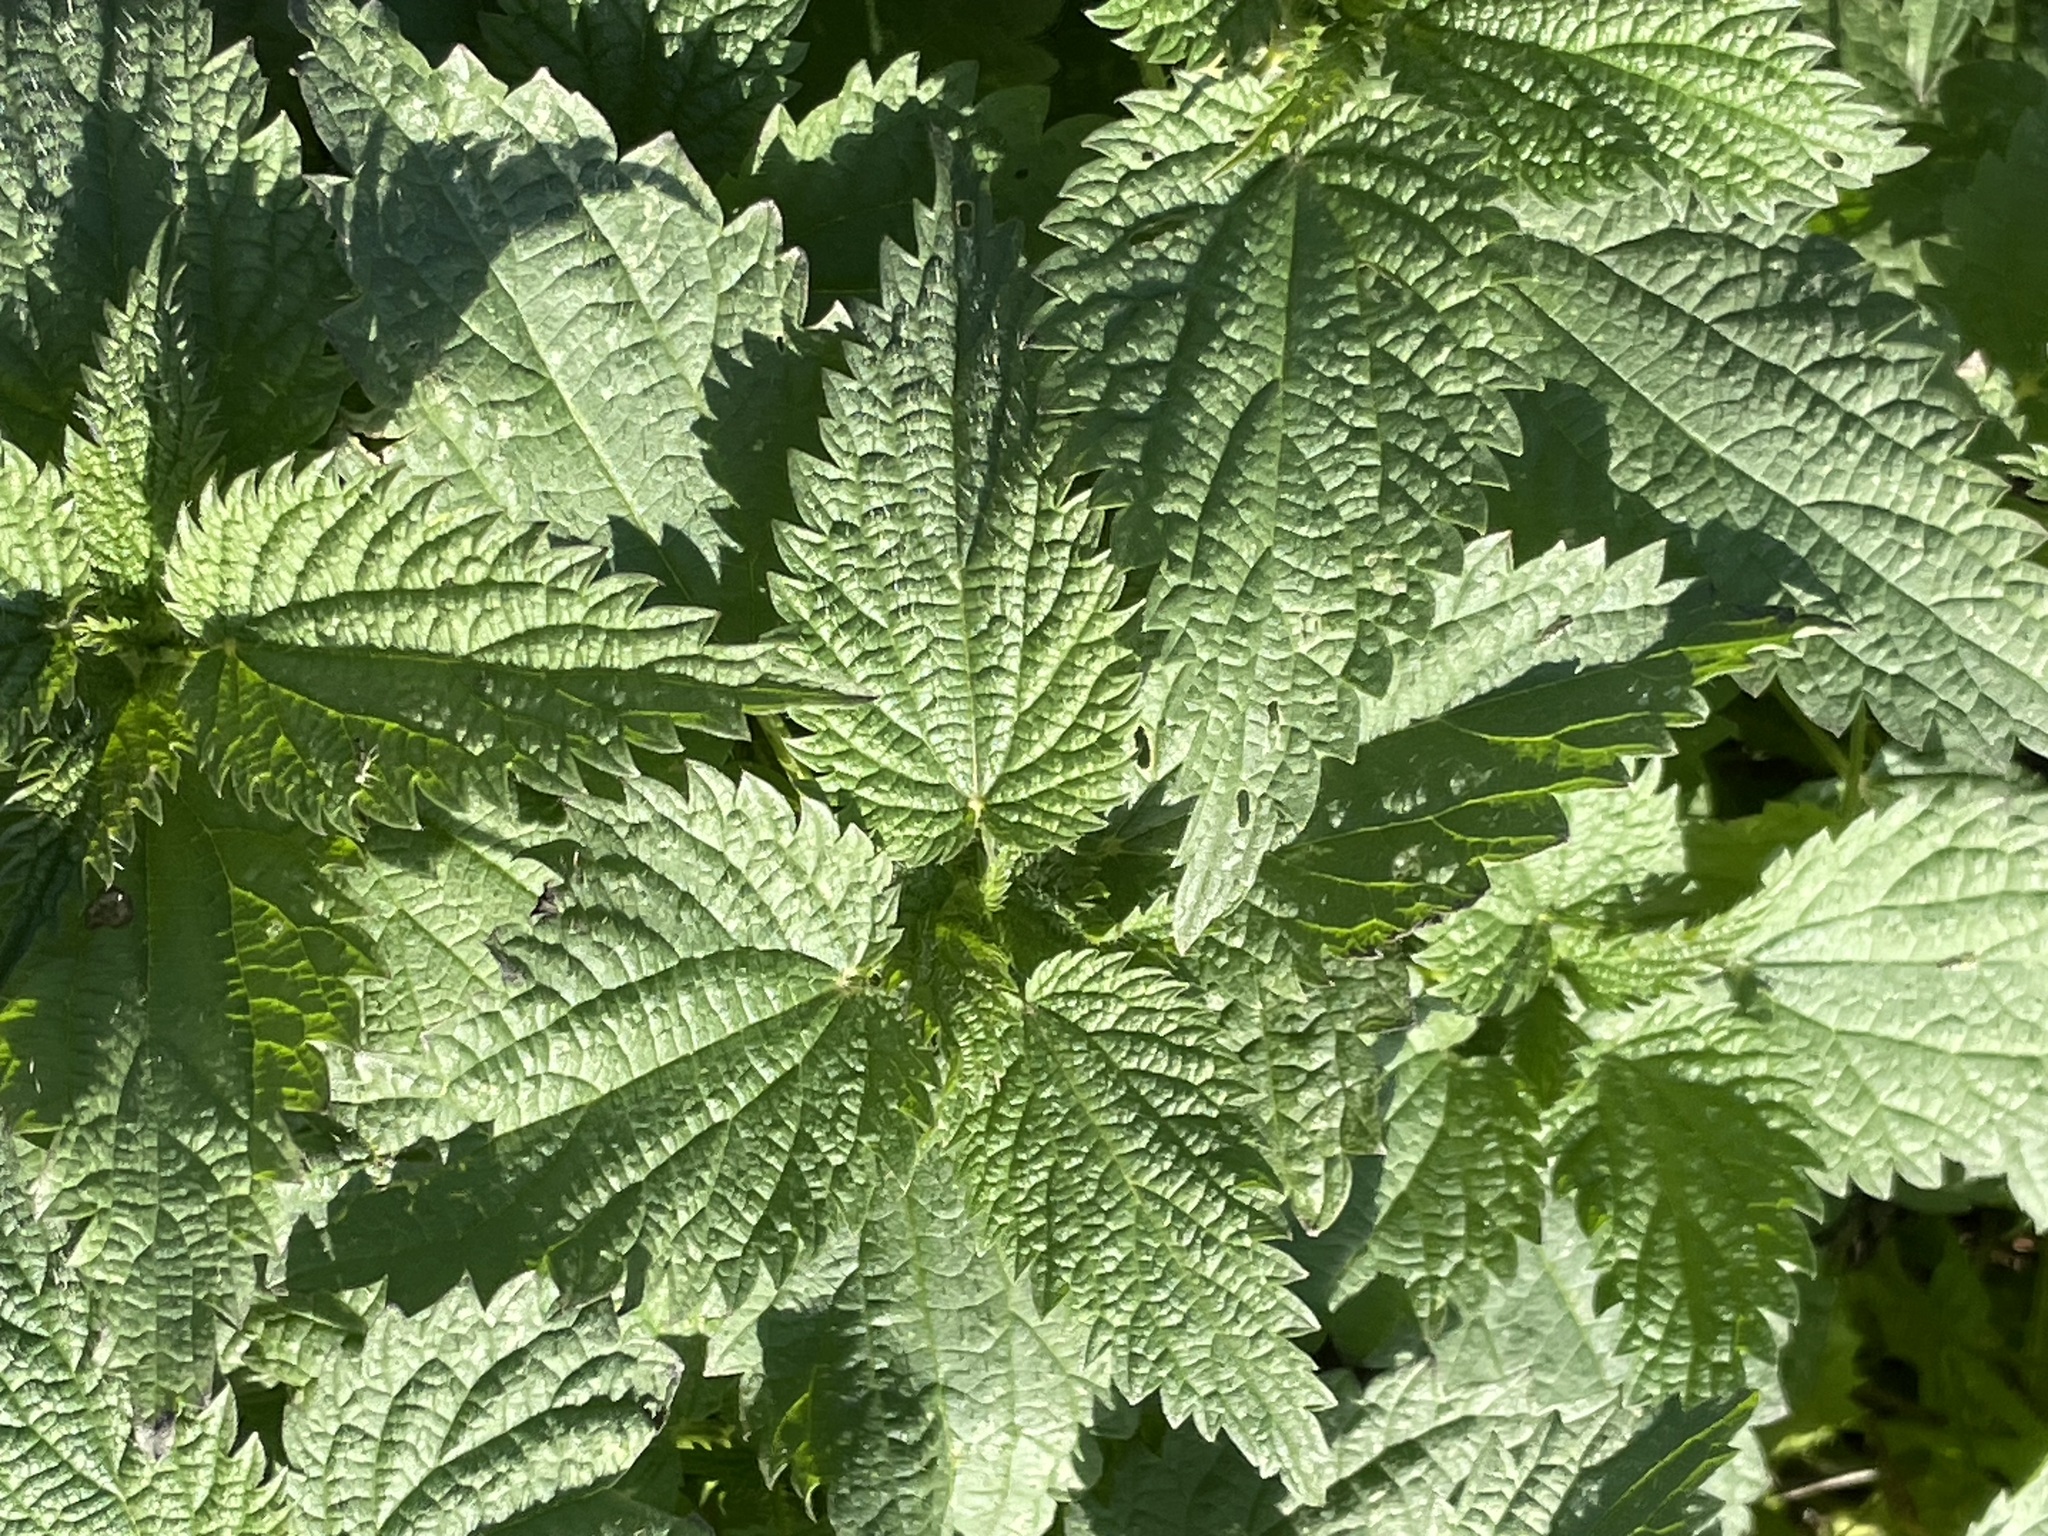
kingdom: Plantae
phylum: Tracheophyta
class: Magnoliopsida
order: Rosales
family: Urticaceae
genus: Urtica
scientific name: Urtica dioica
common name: Common nettle
